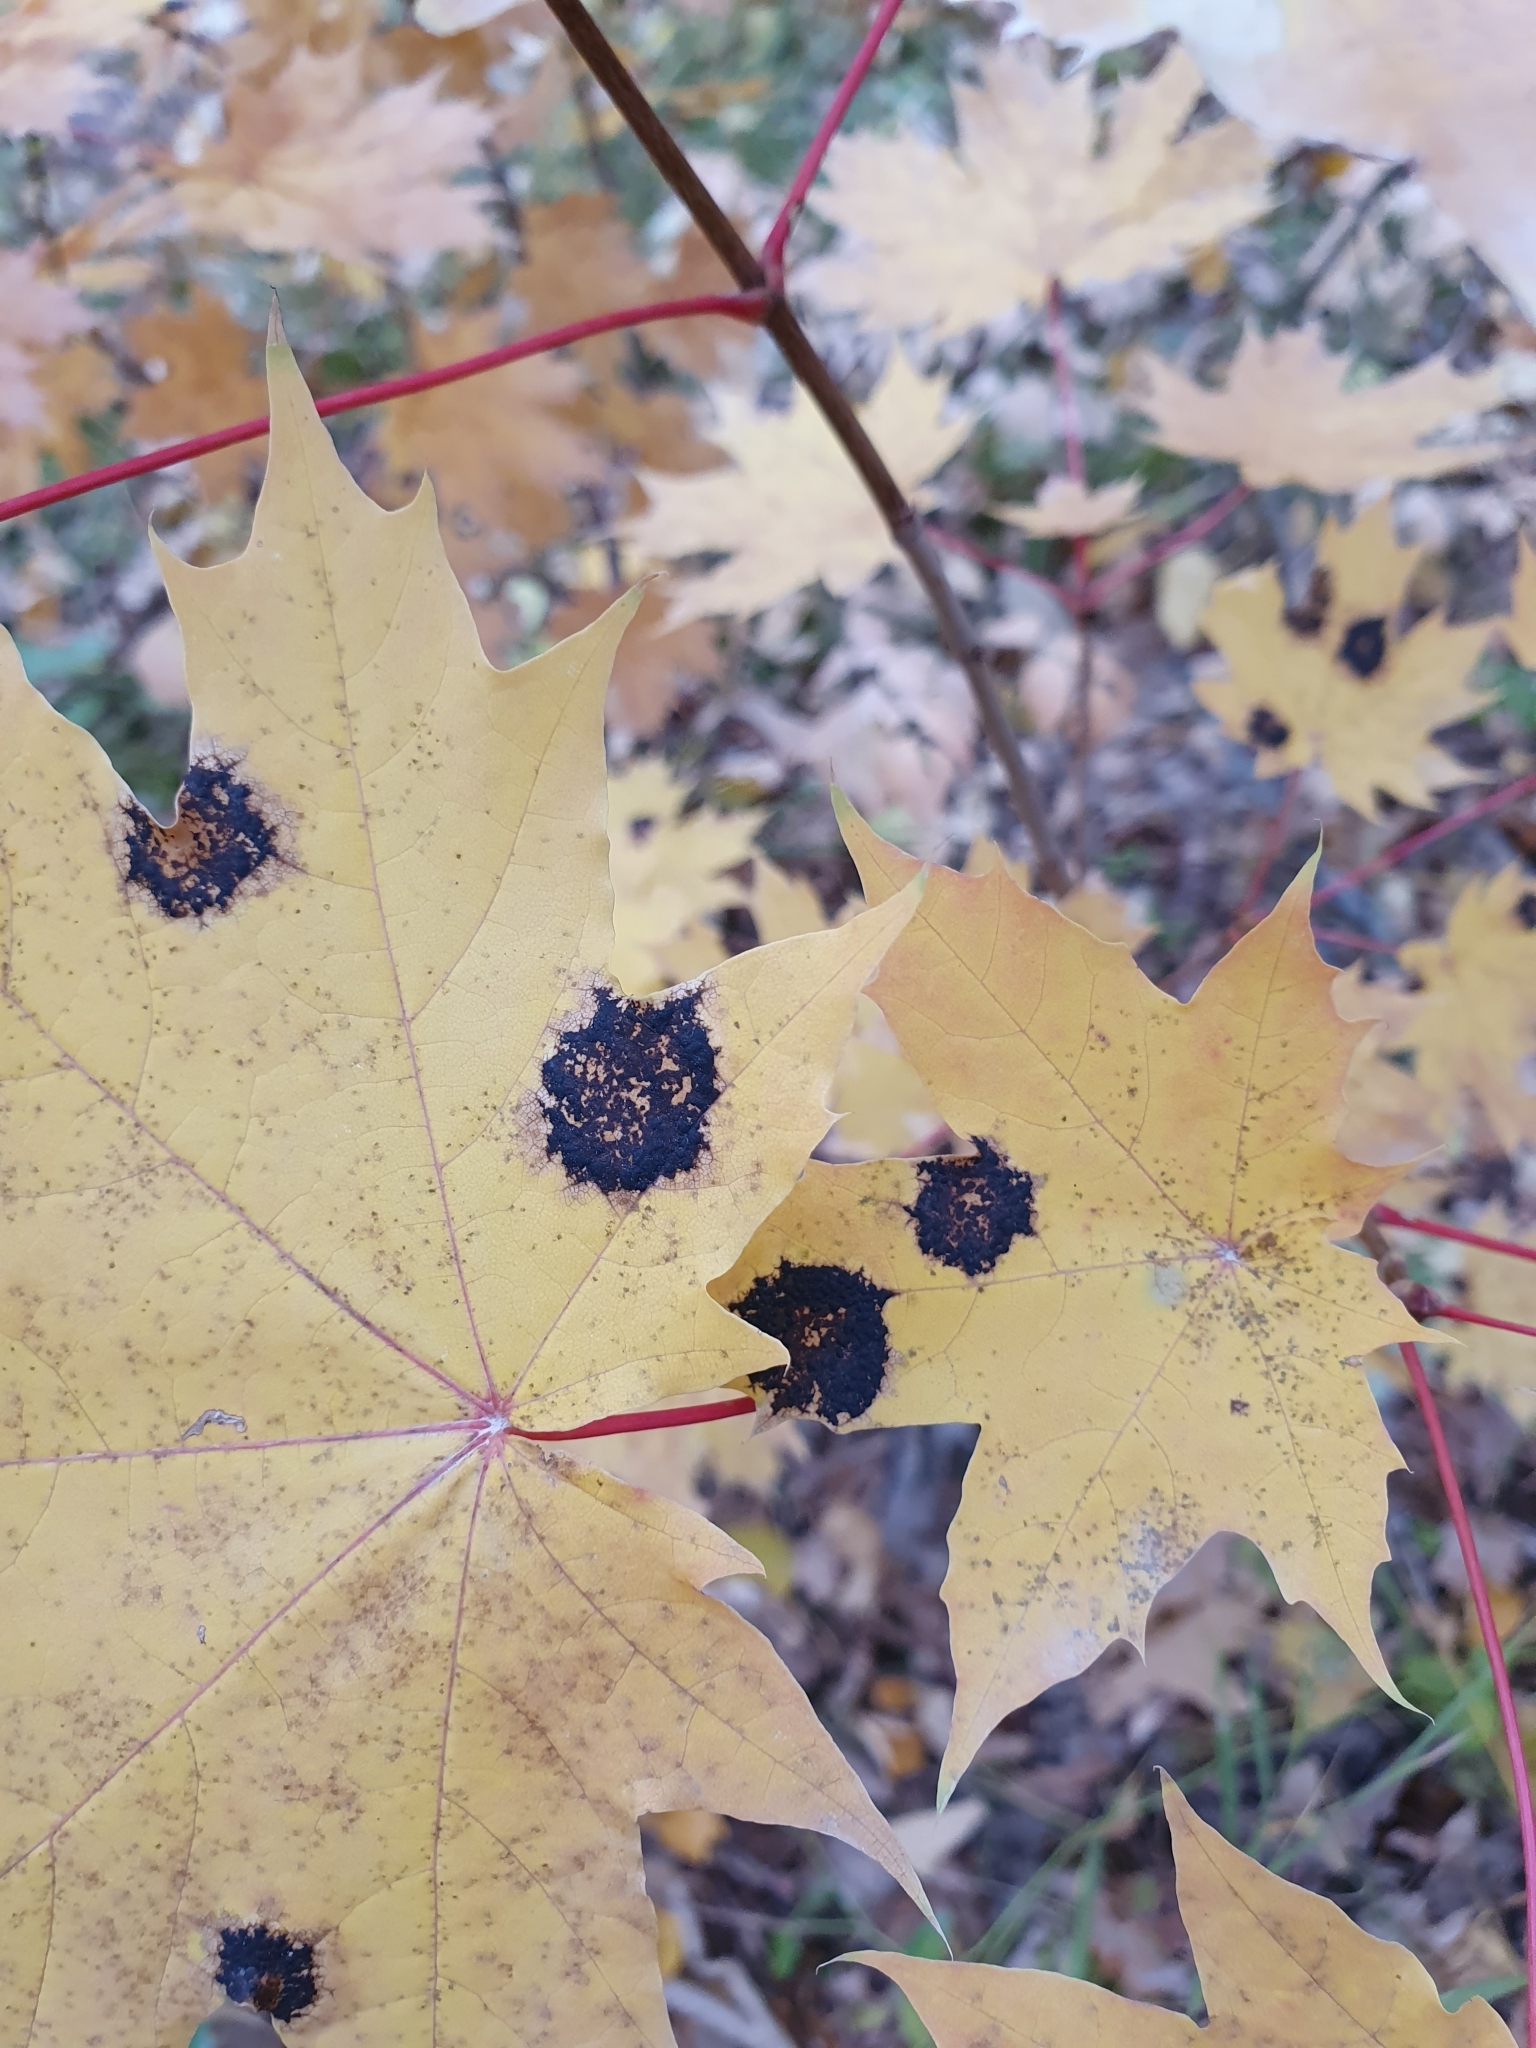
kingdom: Fungi
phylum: Ascomycota
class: Leotiomycetes
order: Rhytismatales
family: Rhytismataceae
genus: Rhytisma
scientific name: Rhytisma acerinum
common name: European tar spot
